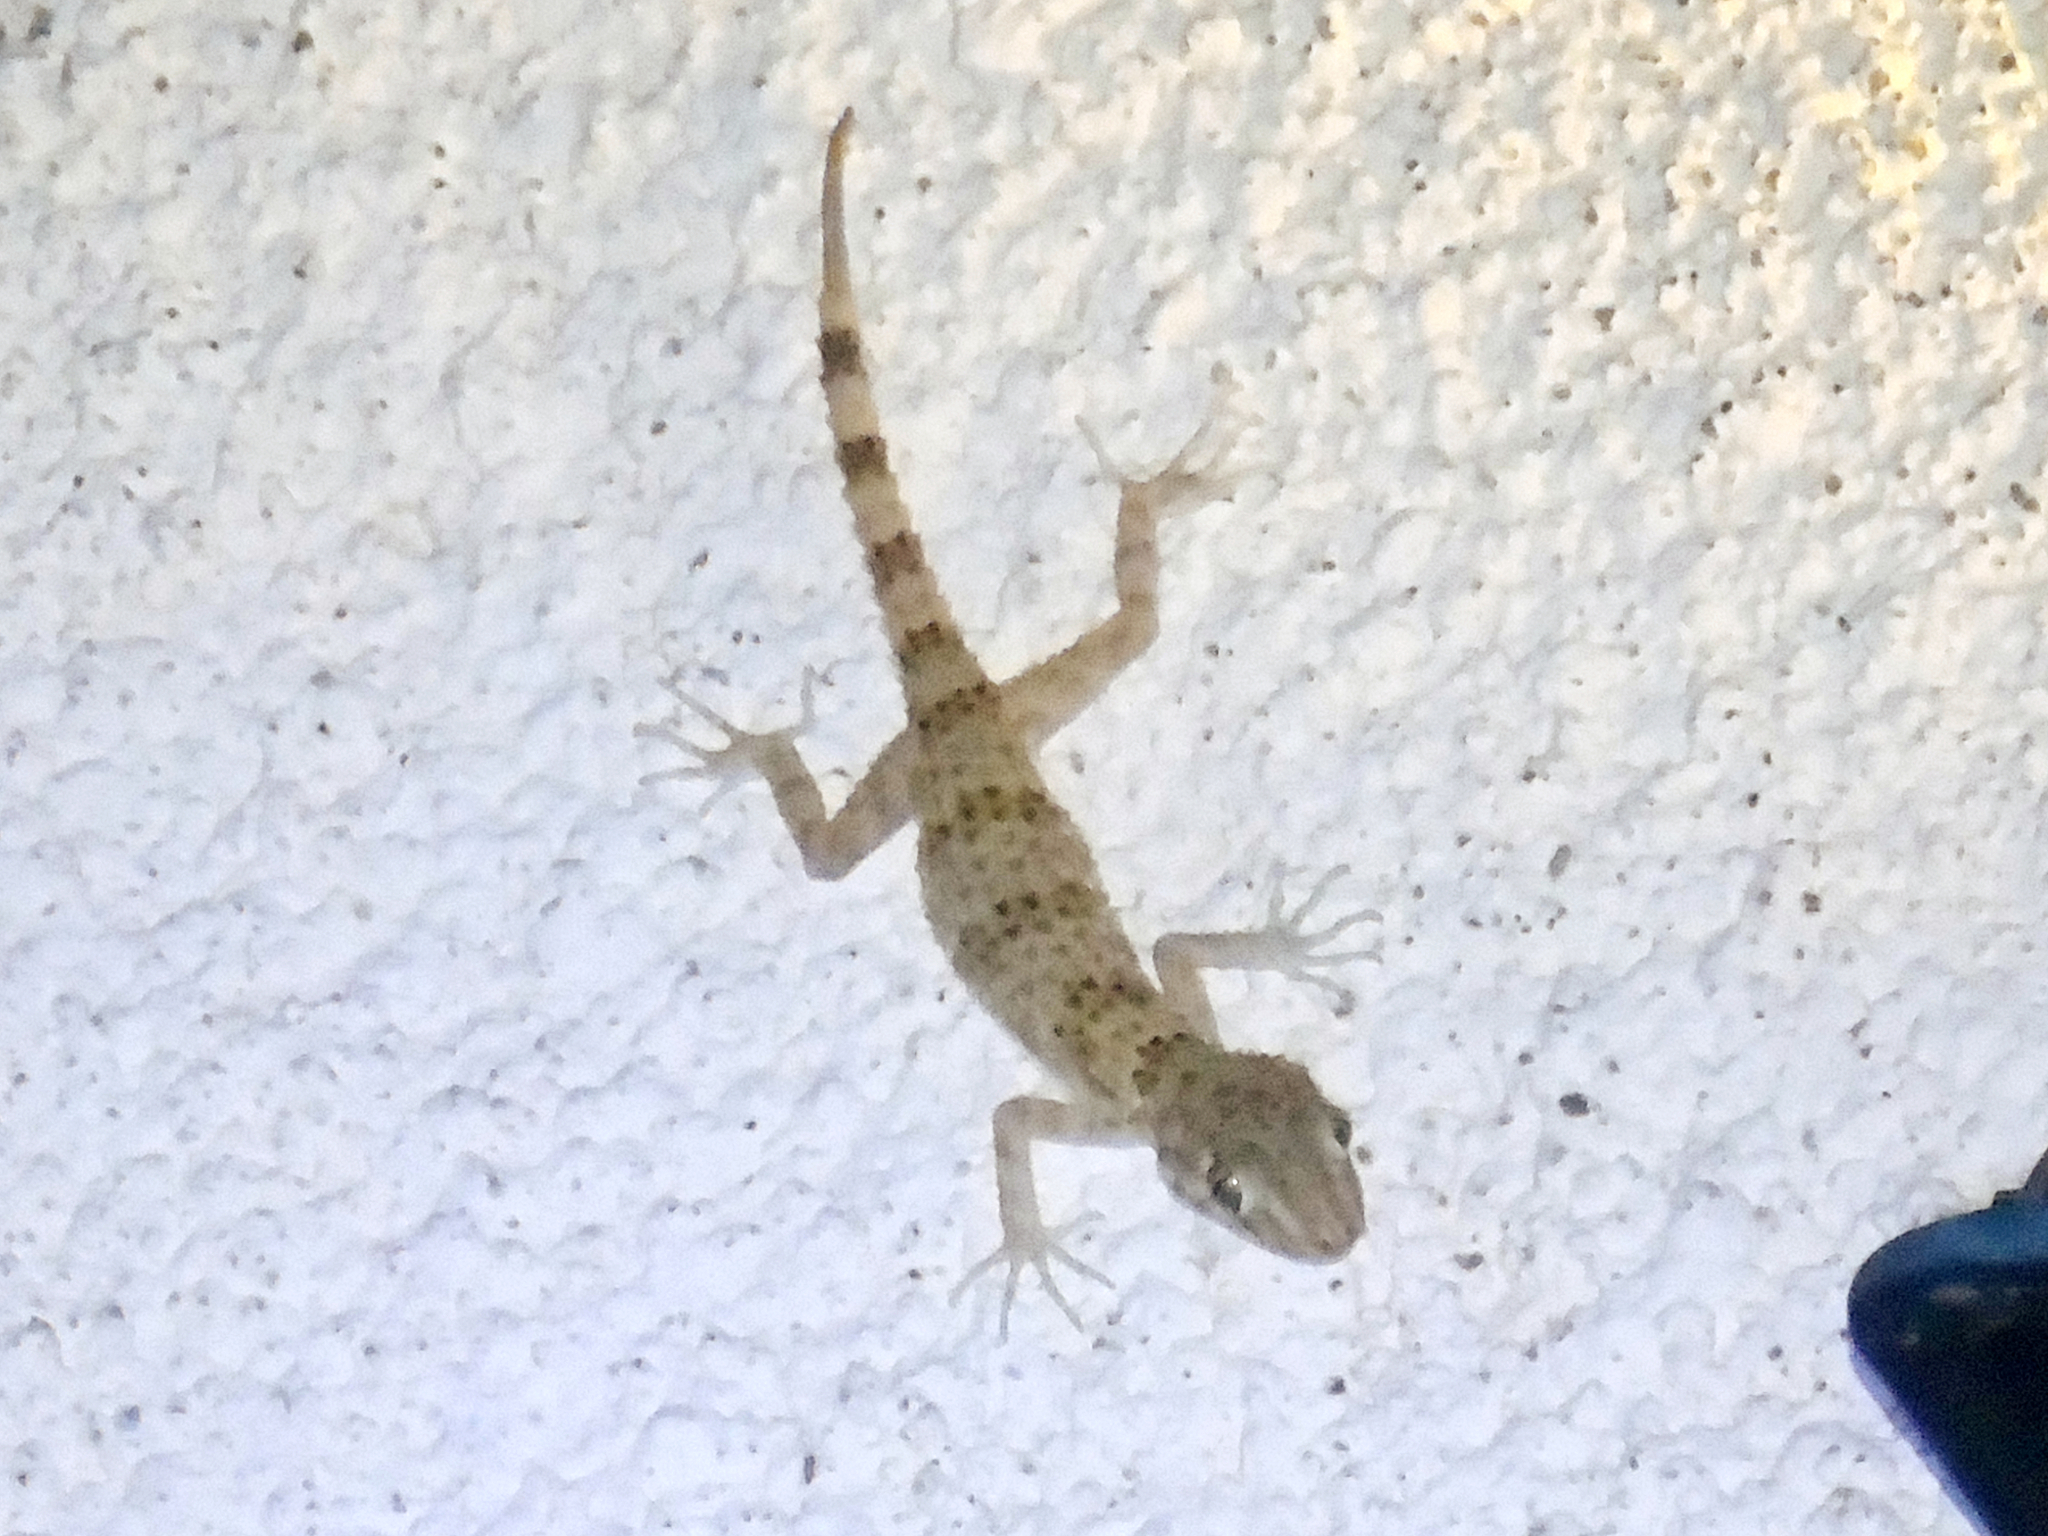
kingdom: Animalia
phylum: Chordata
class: Squamata
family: Gekkonidae
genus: Tenuidactylus
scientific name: Tenuidactylus caspius
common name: Caspian bent-toed gecko
